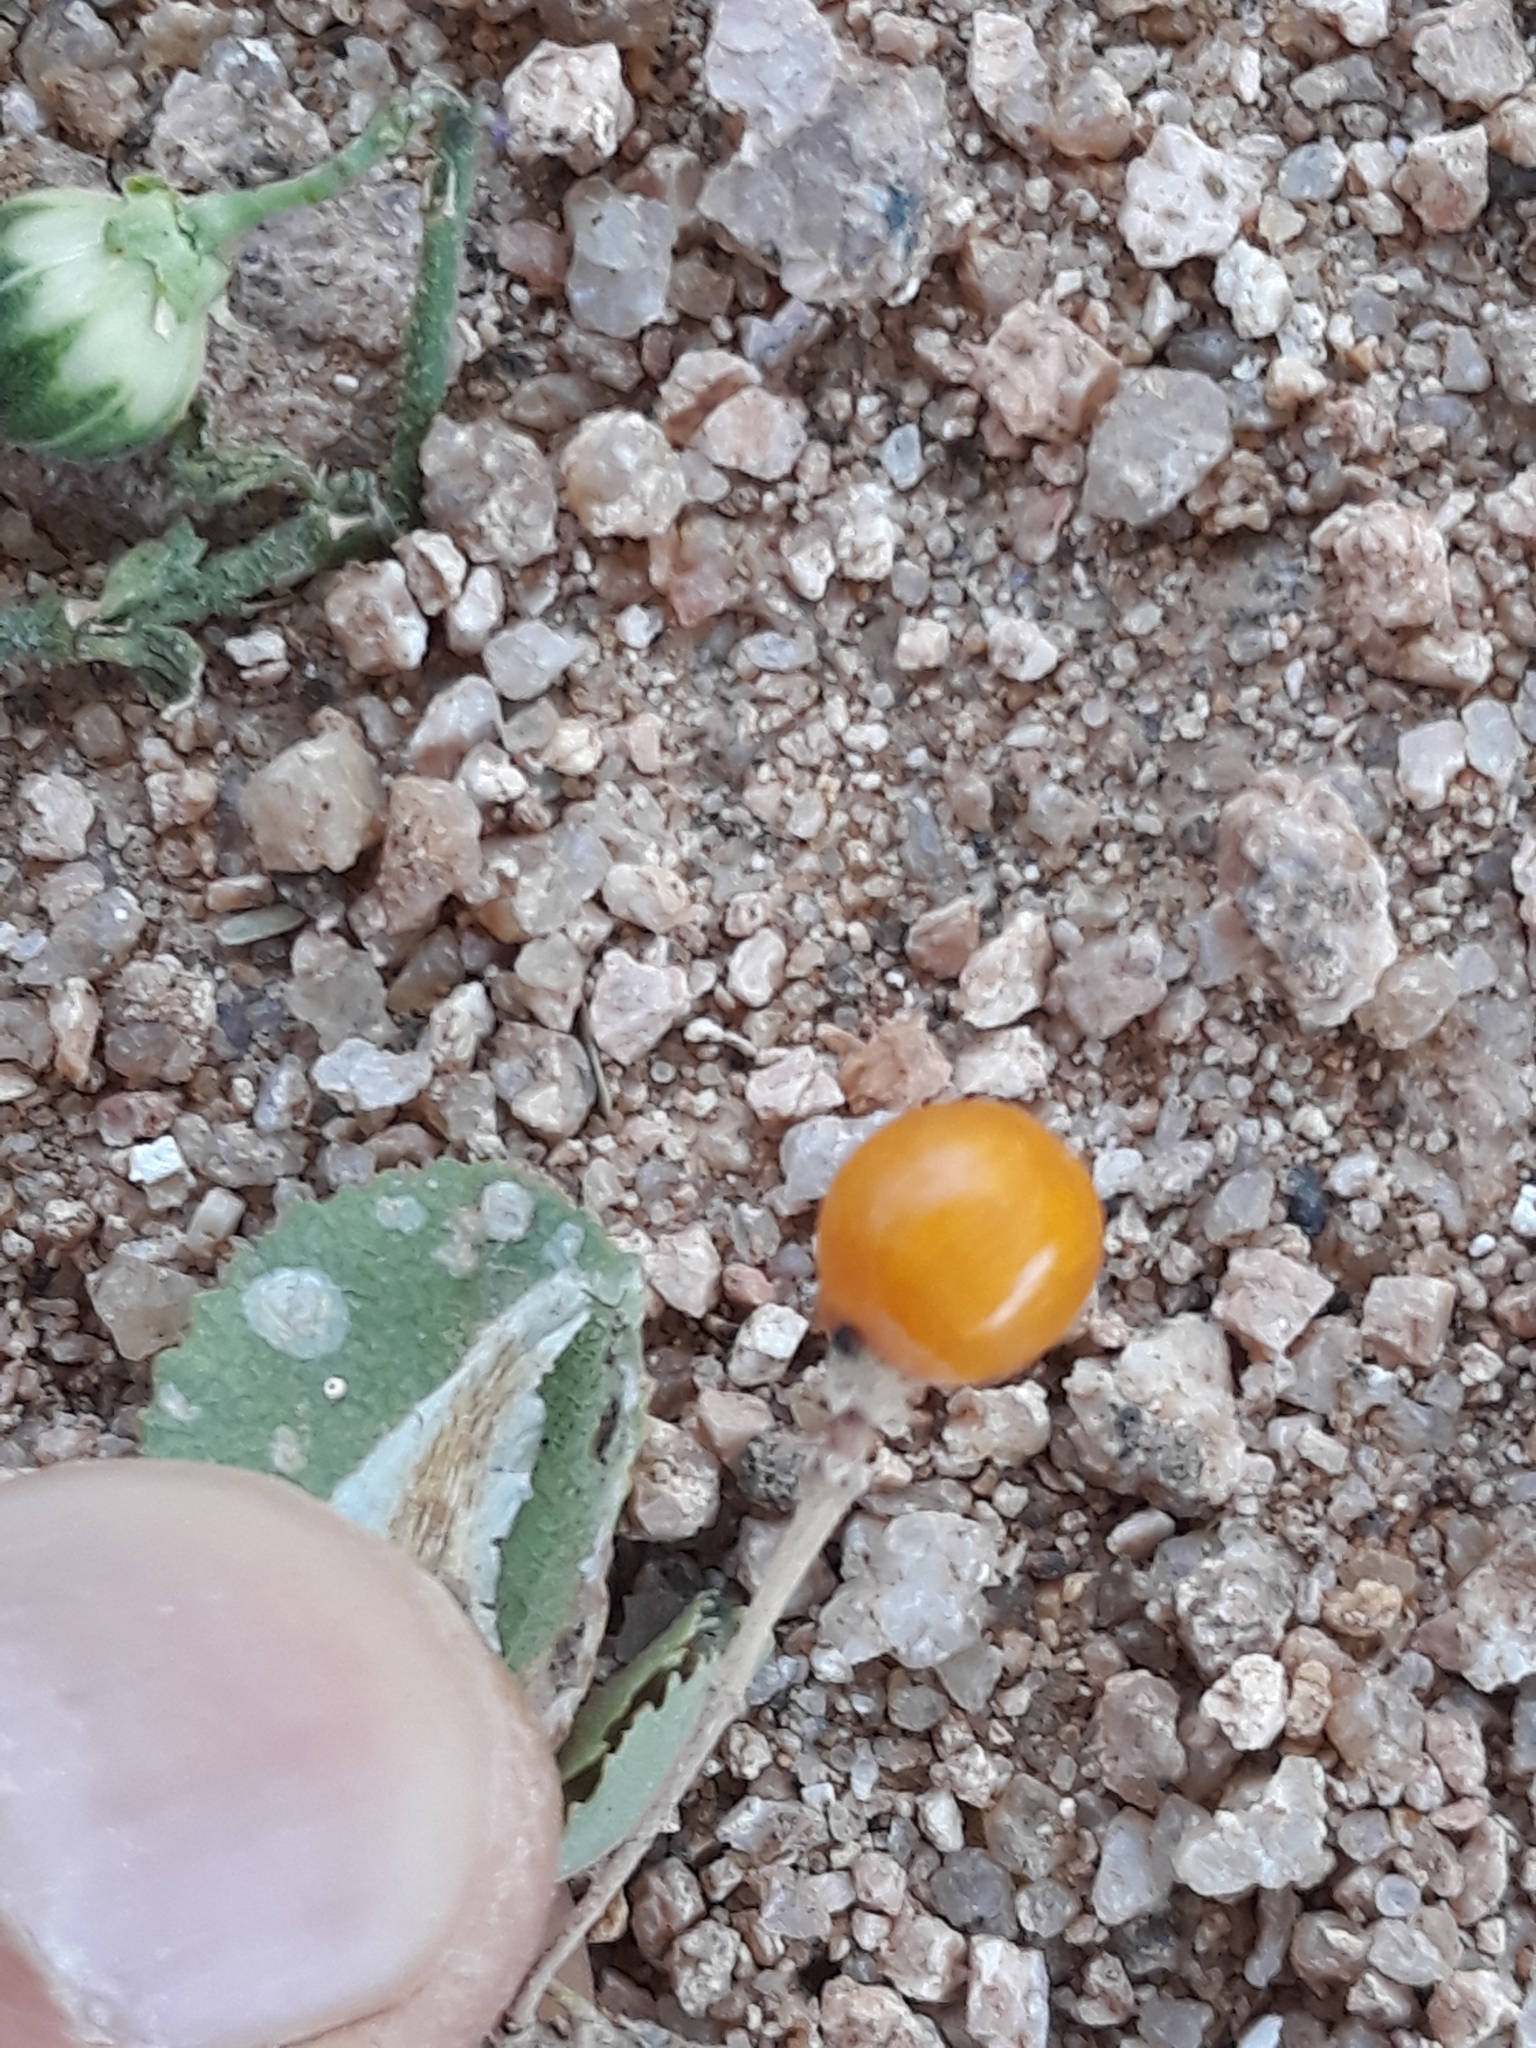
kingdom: Plantae
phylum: Tracheophyta
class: Magnoliopsida
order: Malvales
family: Malvaceae
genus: Grewia
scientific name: Grewia tenax
